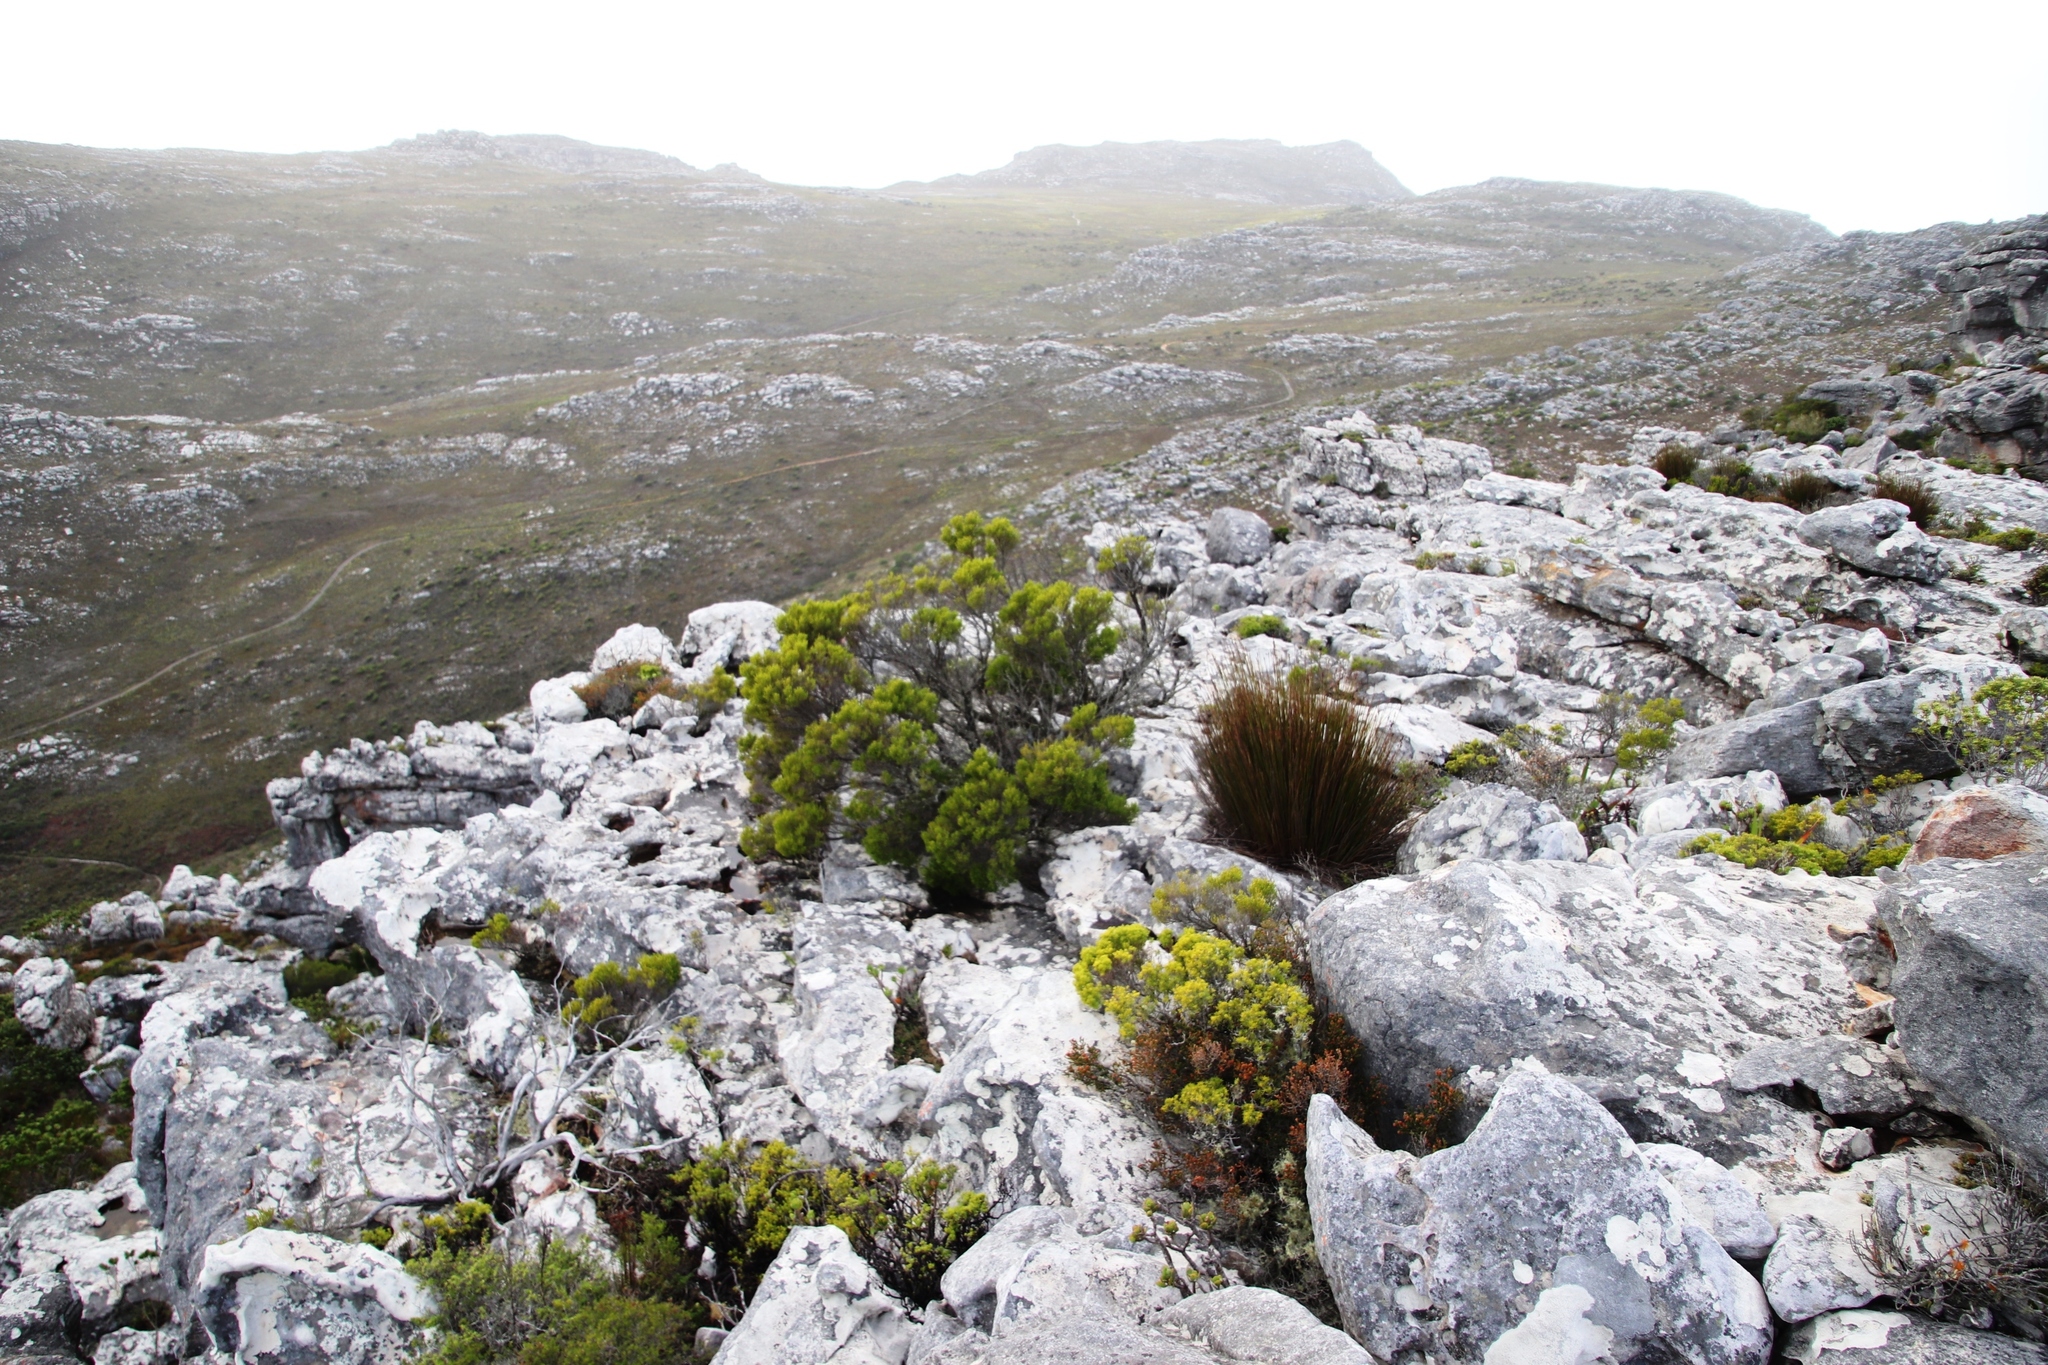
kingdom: Plantae
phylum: Tracheophyta
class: Magnoliopsida
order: Sapindales
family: Rutaceae
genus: Coleonema
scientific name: Coleonema album
